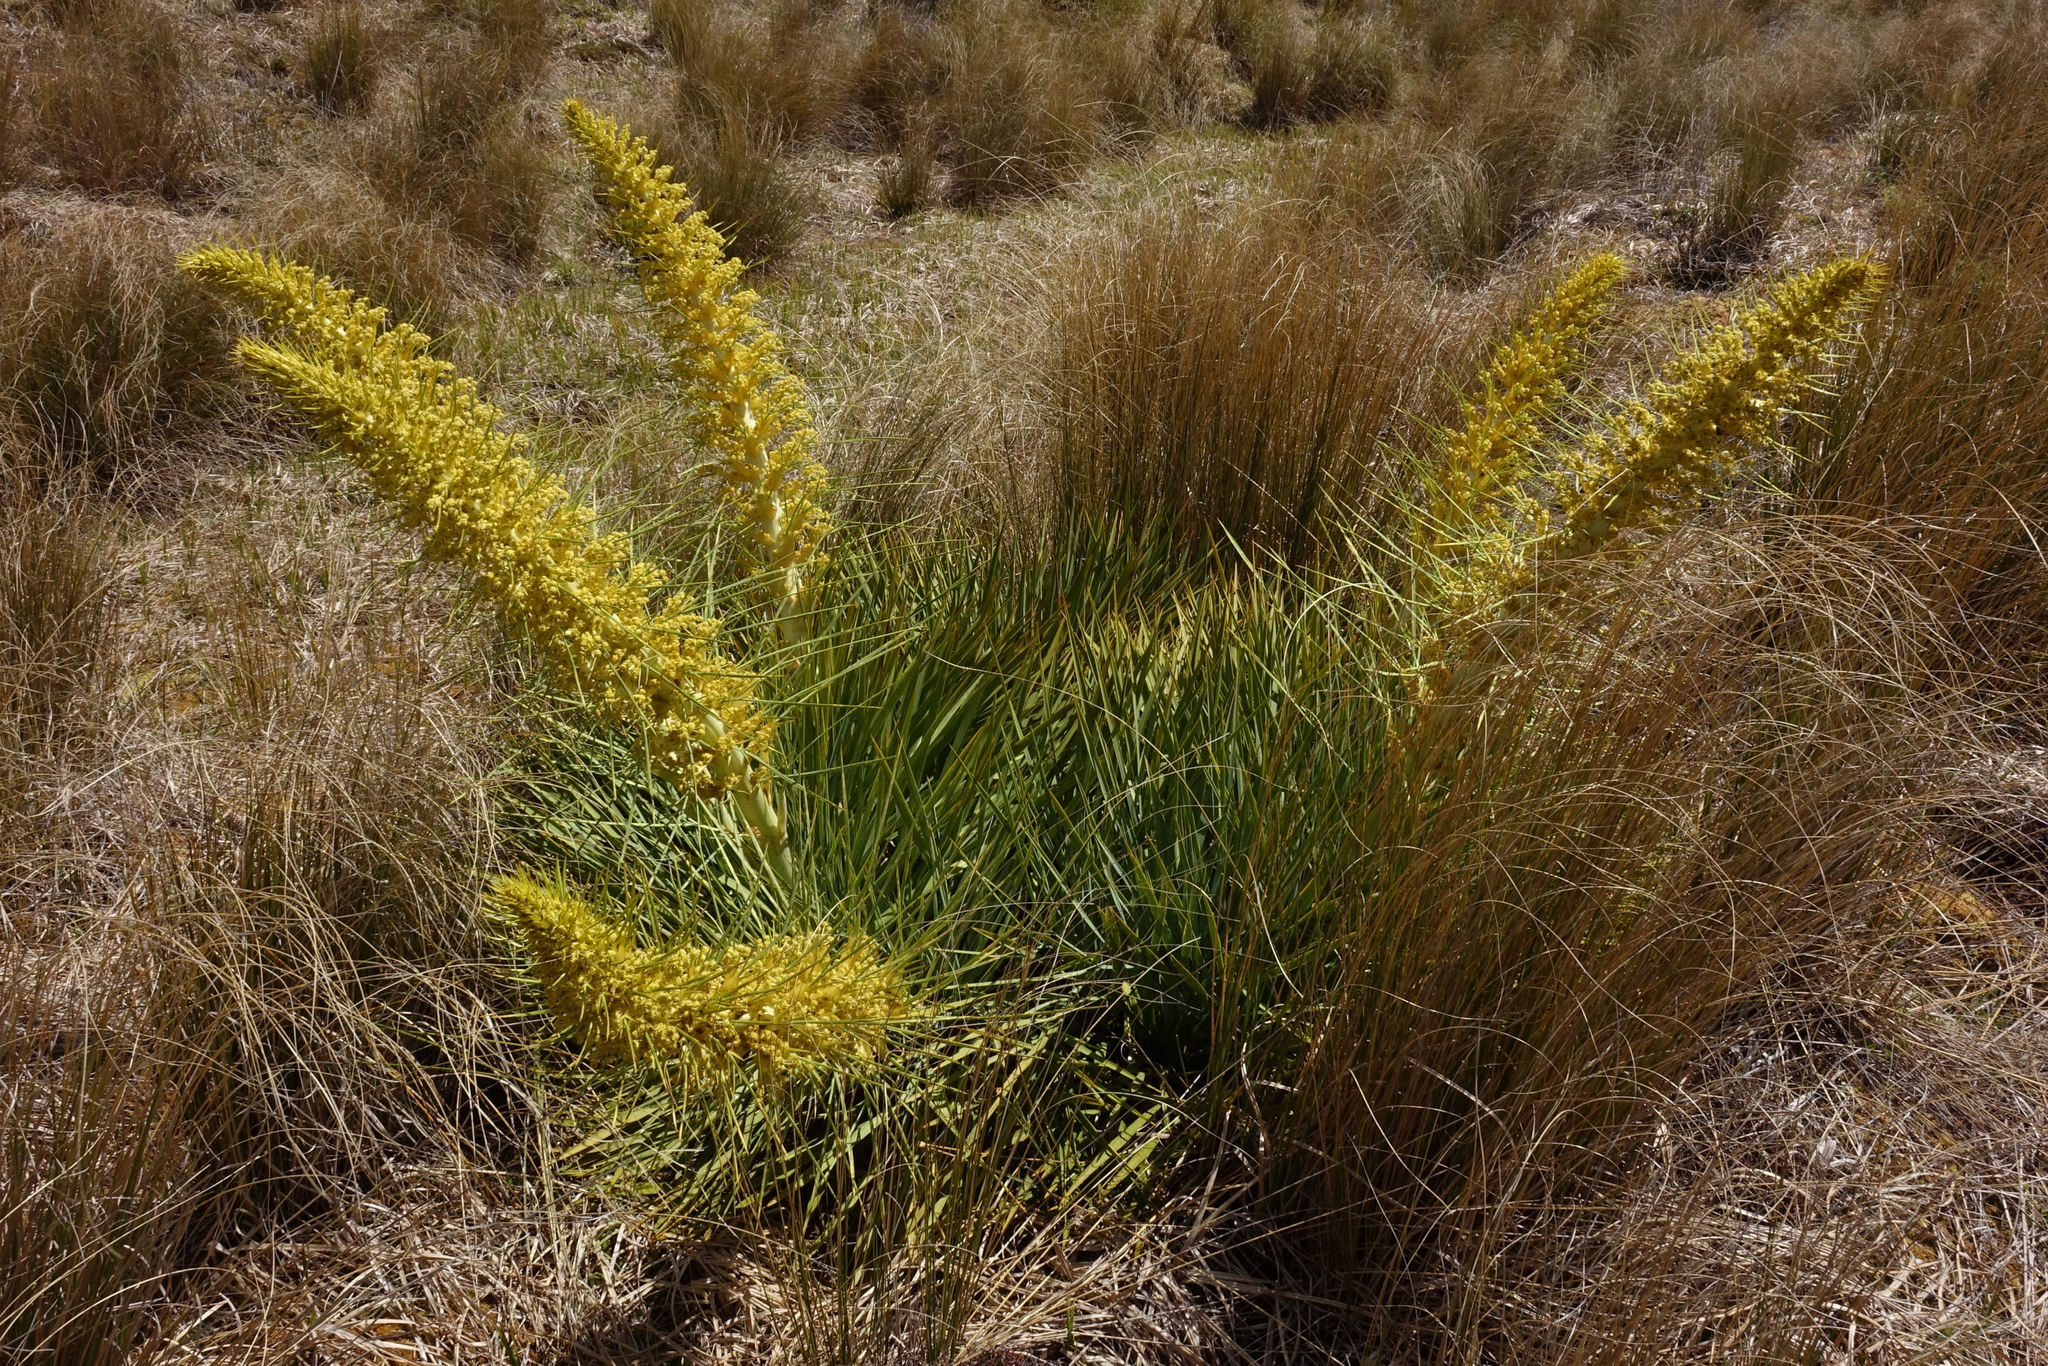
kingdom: Plantae
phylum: Tracheophyta
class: Magnoliopsida
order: Apiales
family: Apiaceae
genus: Aciphylla
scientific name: Aciphylla scott-thomsonii
